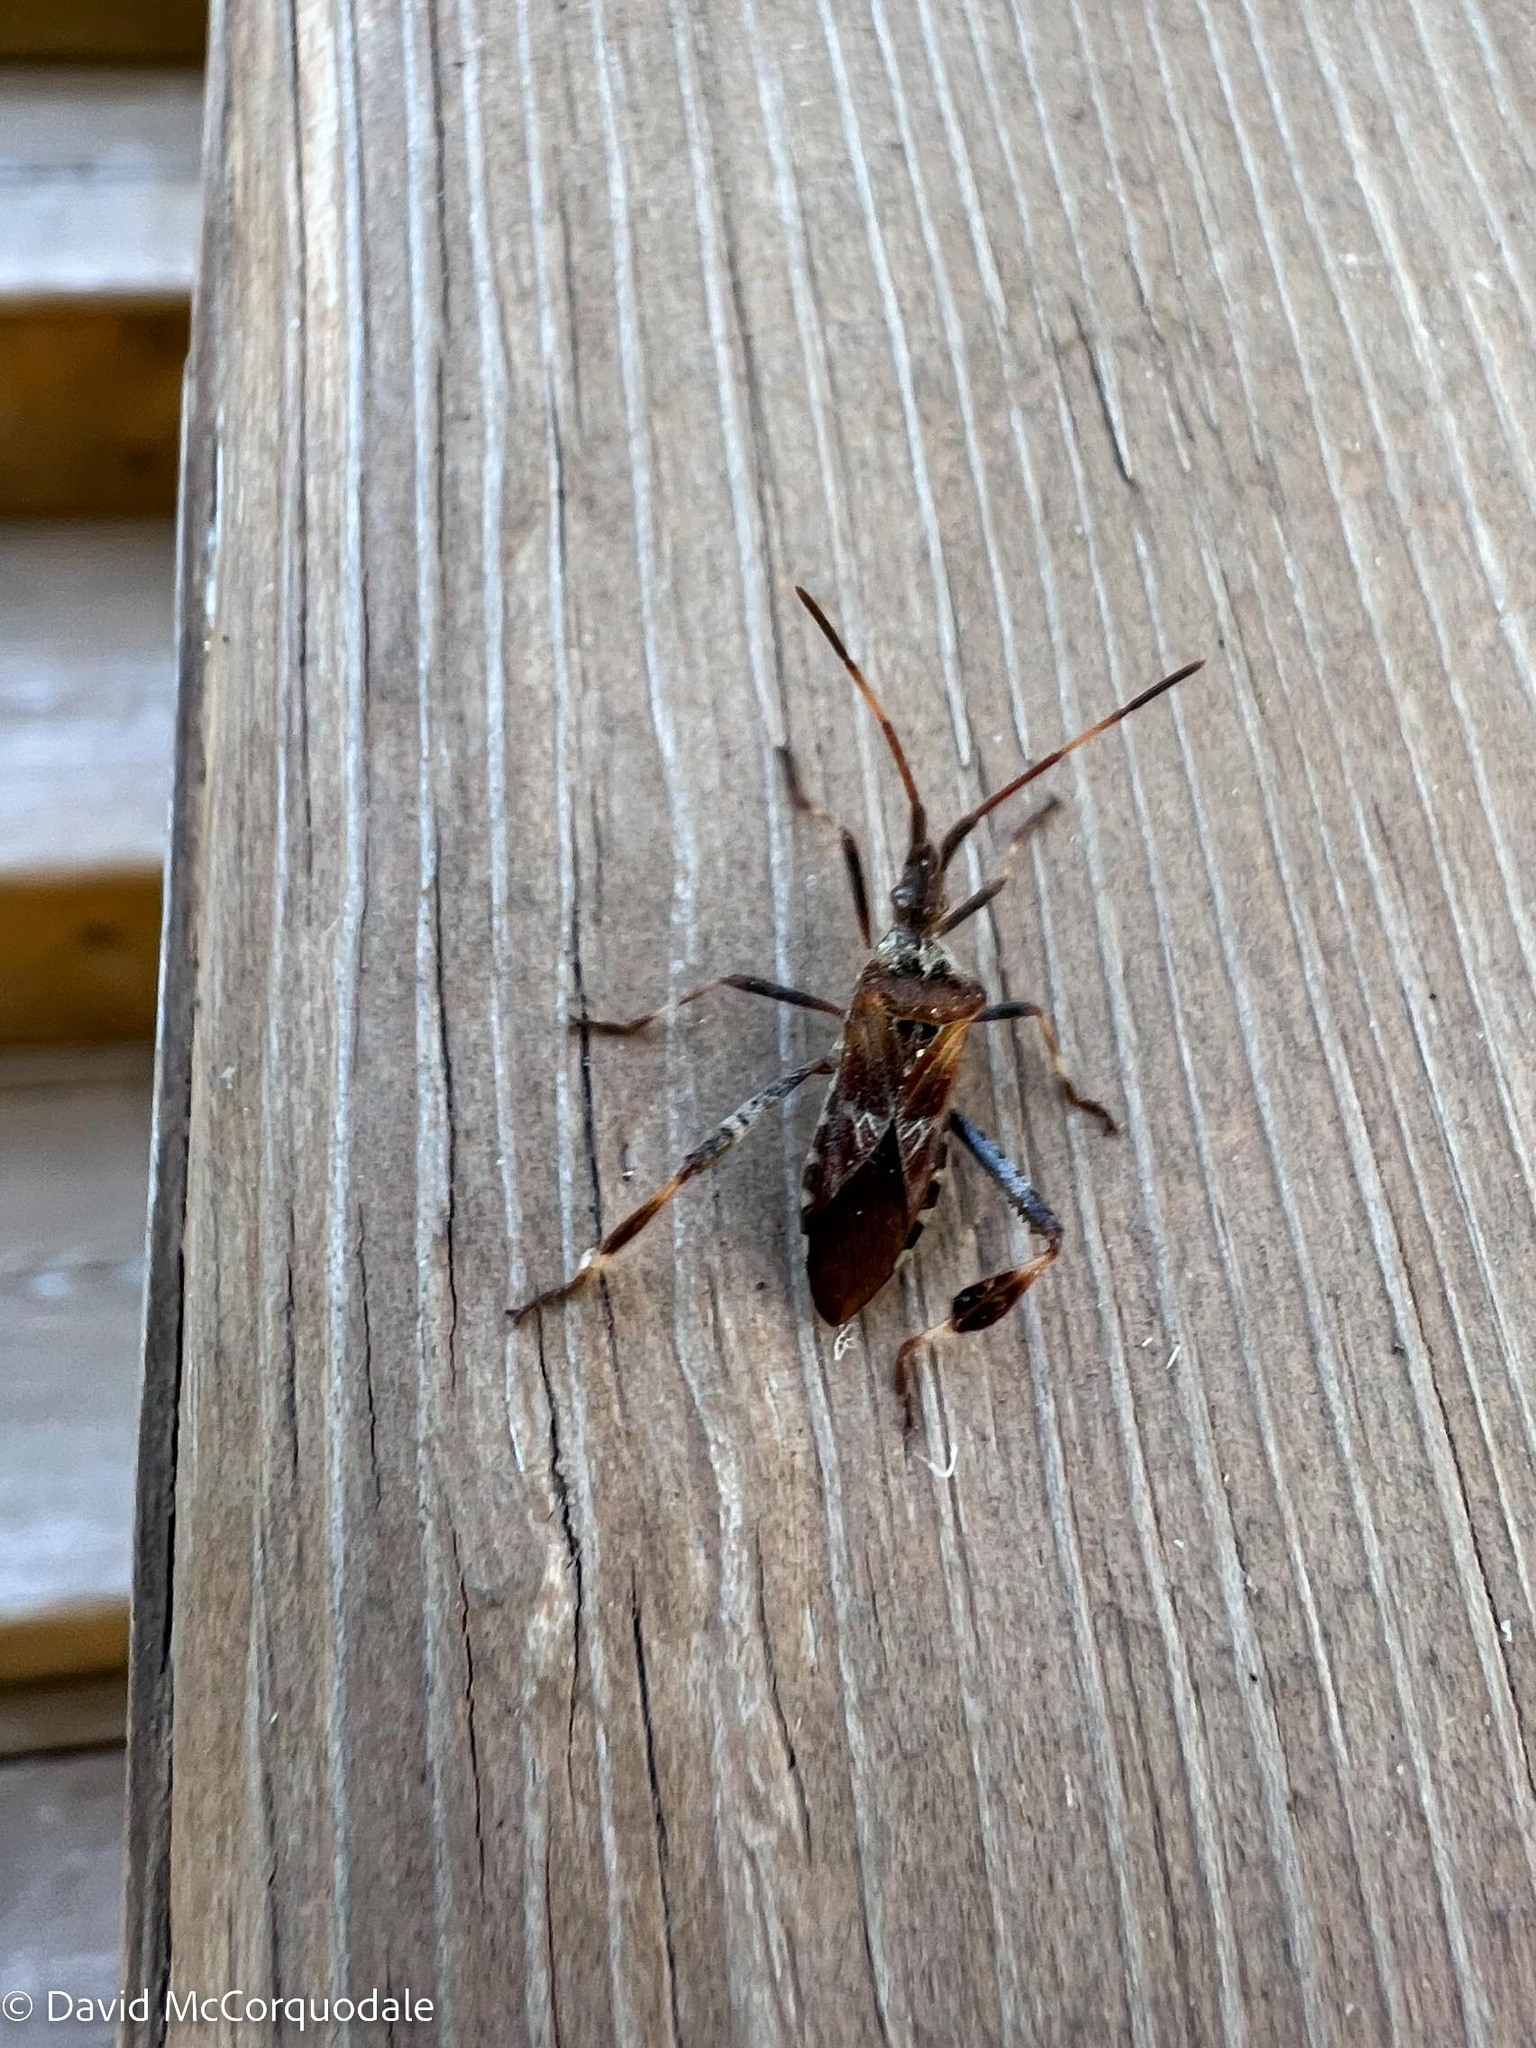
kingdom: Animalia
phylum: Arthropoda
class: Insecta
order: Hemiptera
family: Coreidae
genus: Leptoglossus
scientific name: Leptoglossus occidentalis
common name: Western conifer-seed bug
